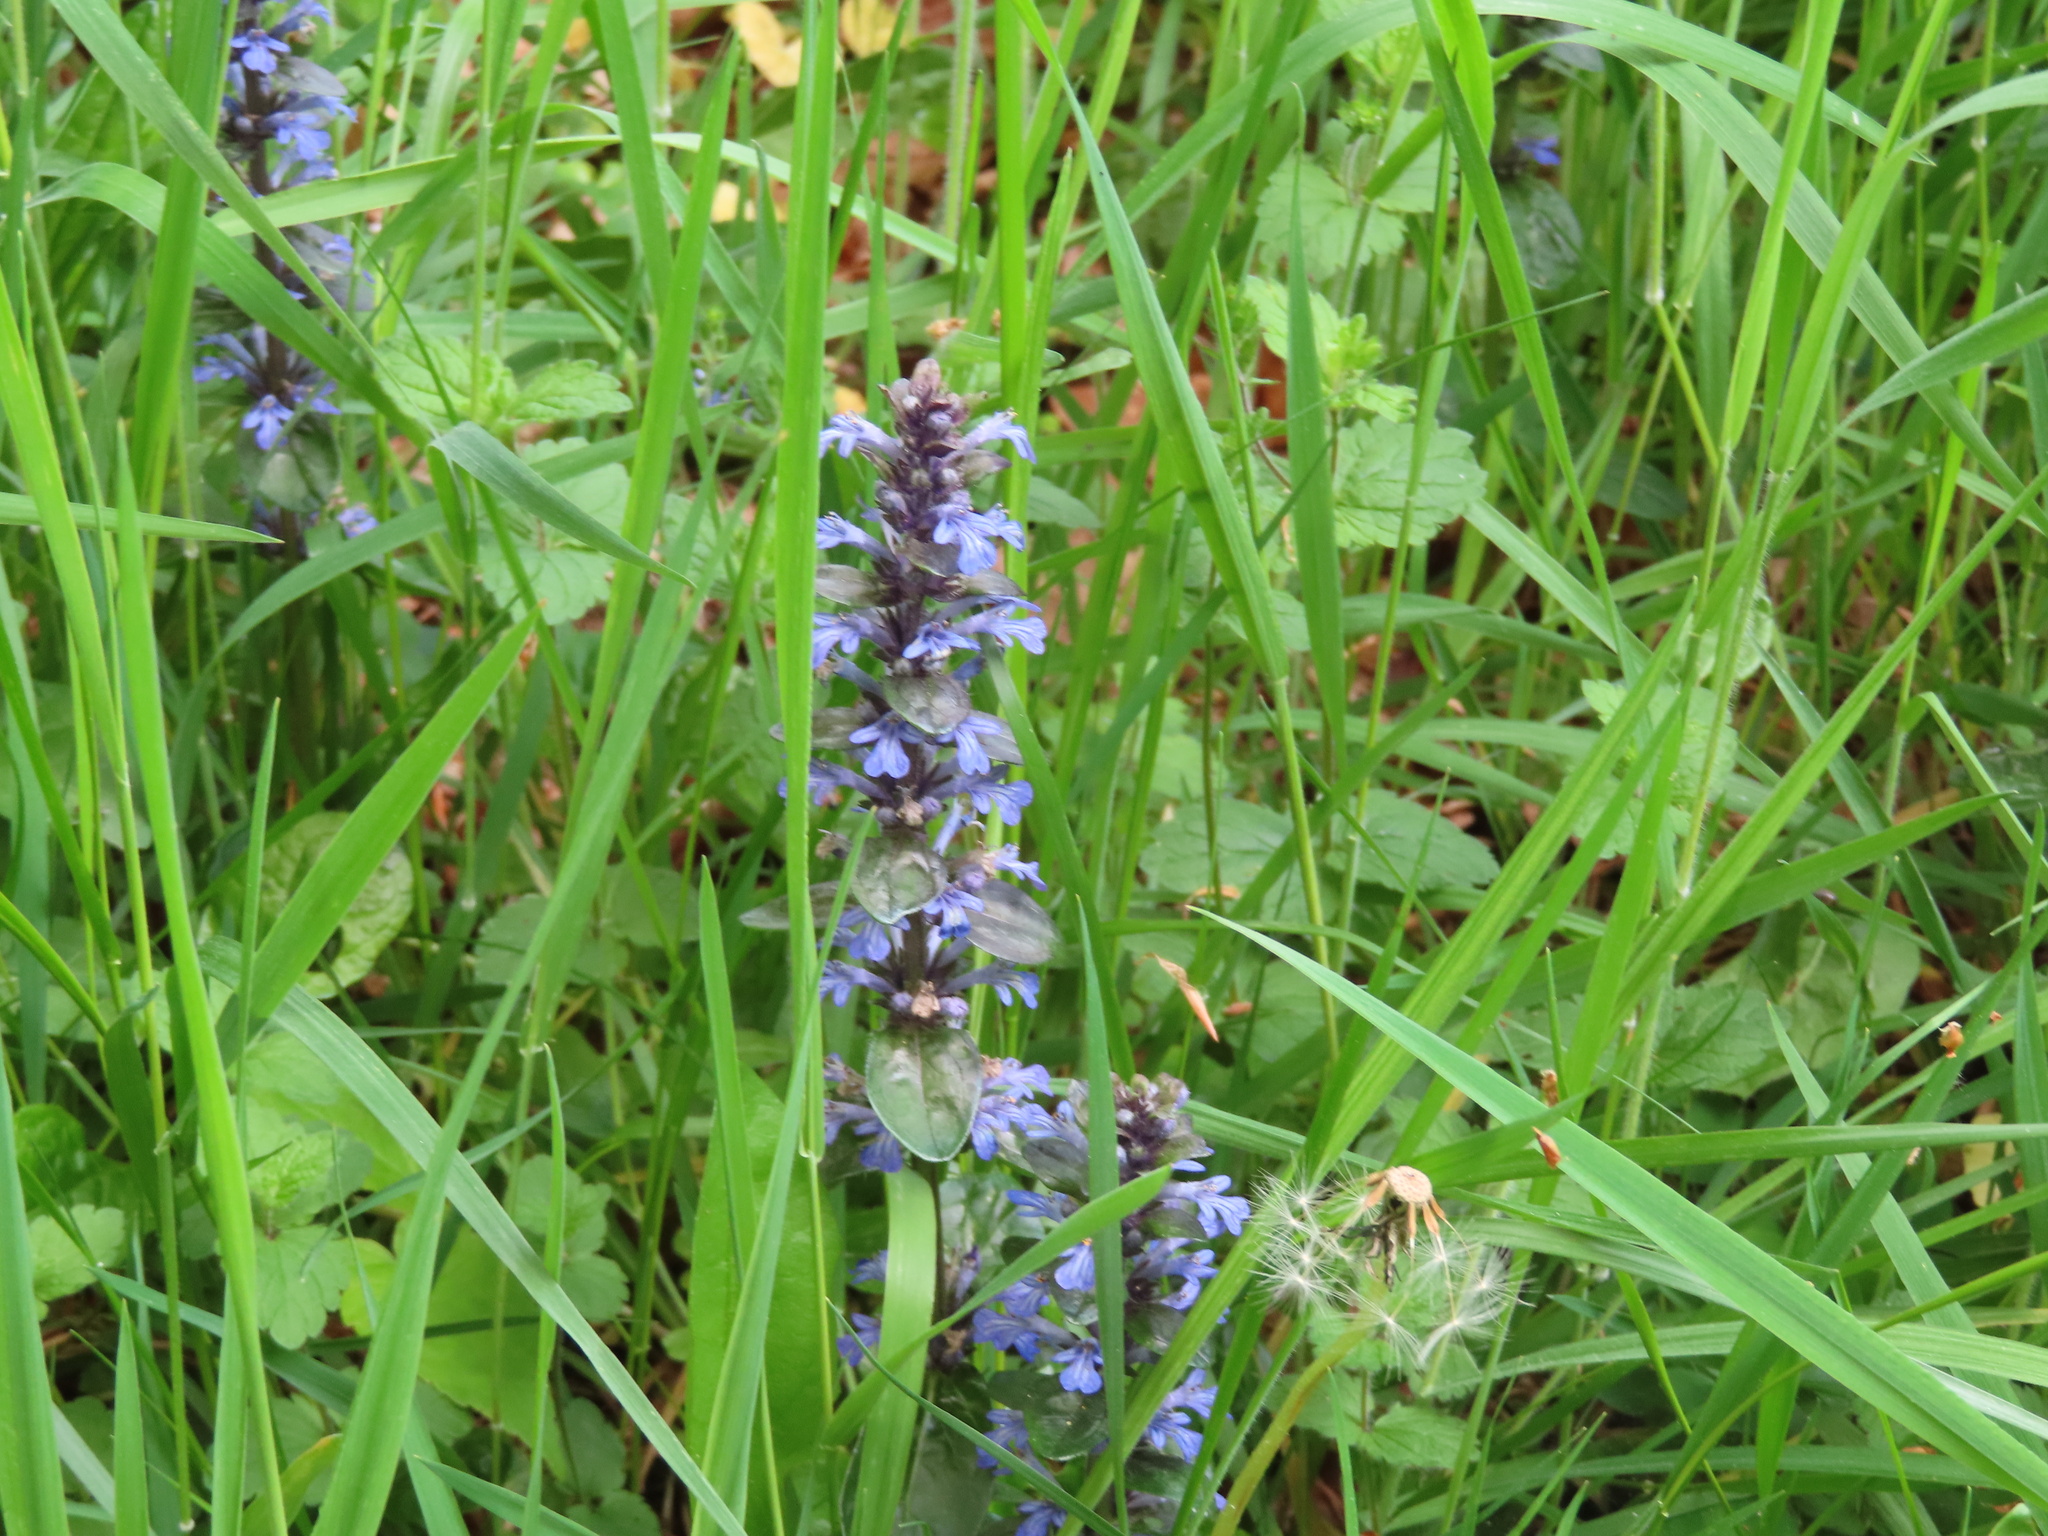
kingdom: Plantae
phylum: Tracheophyta
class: Magnoliopsida
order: Lamiales
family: Lamiaceae
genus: Ajuga
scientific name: Ajuga reptans
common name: Bugle
